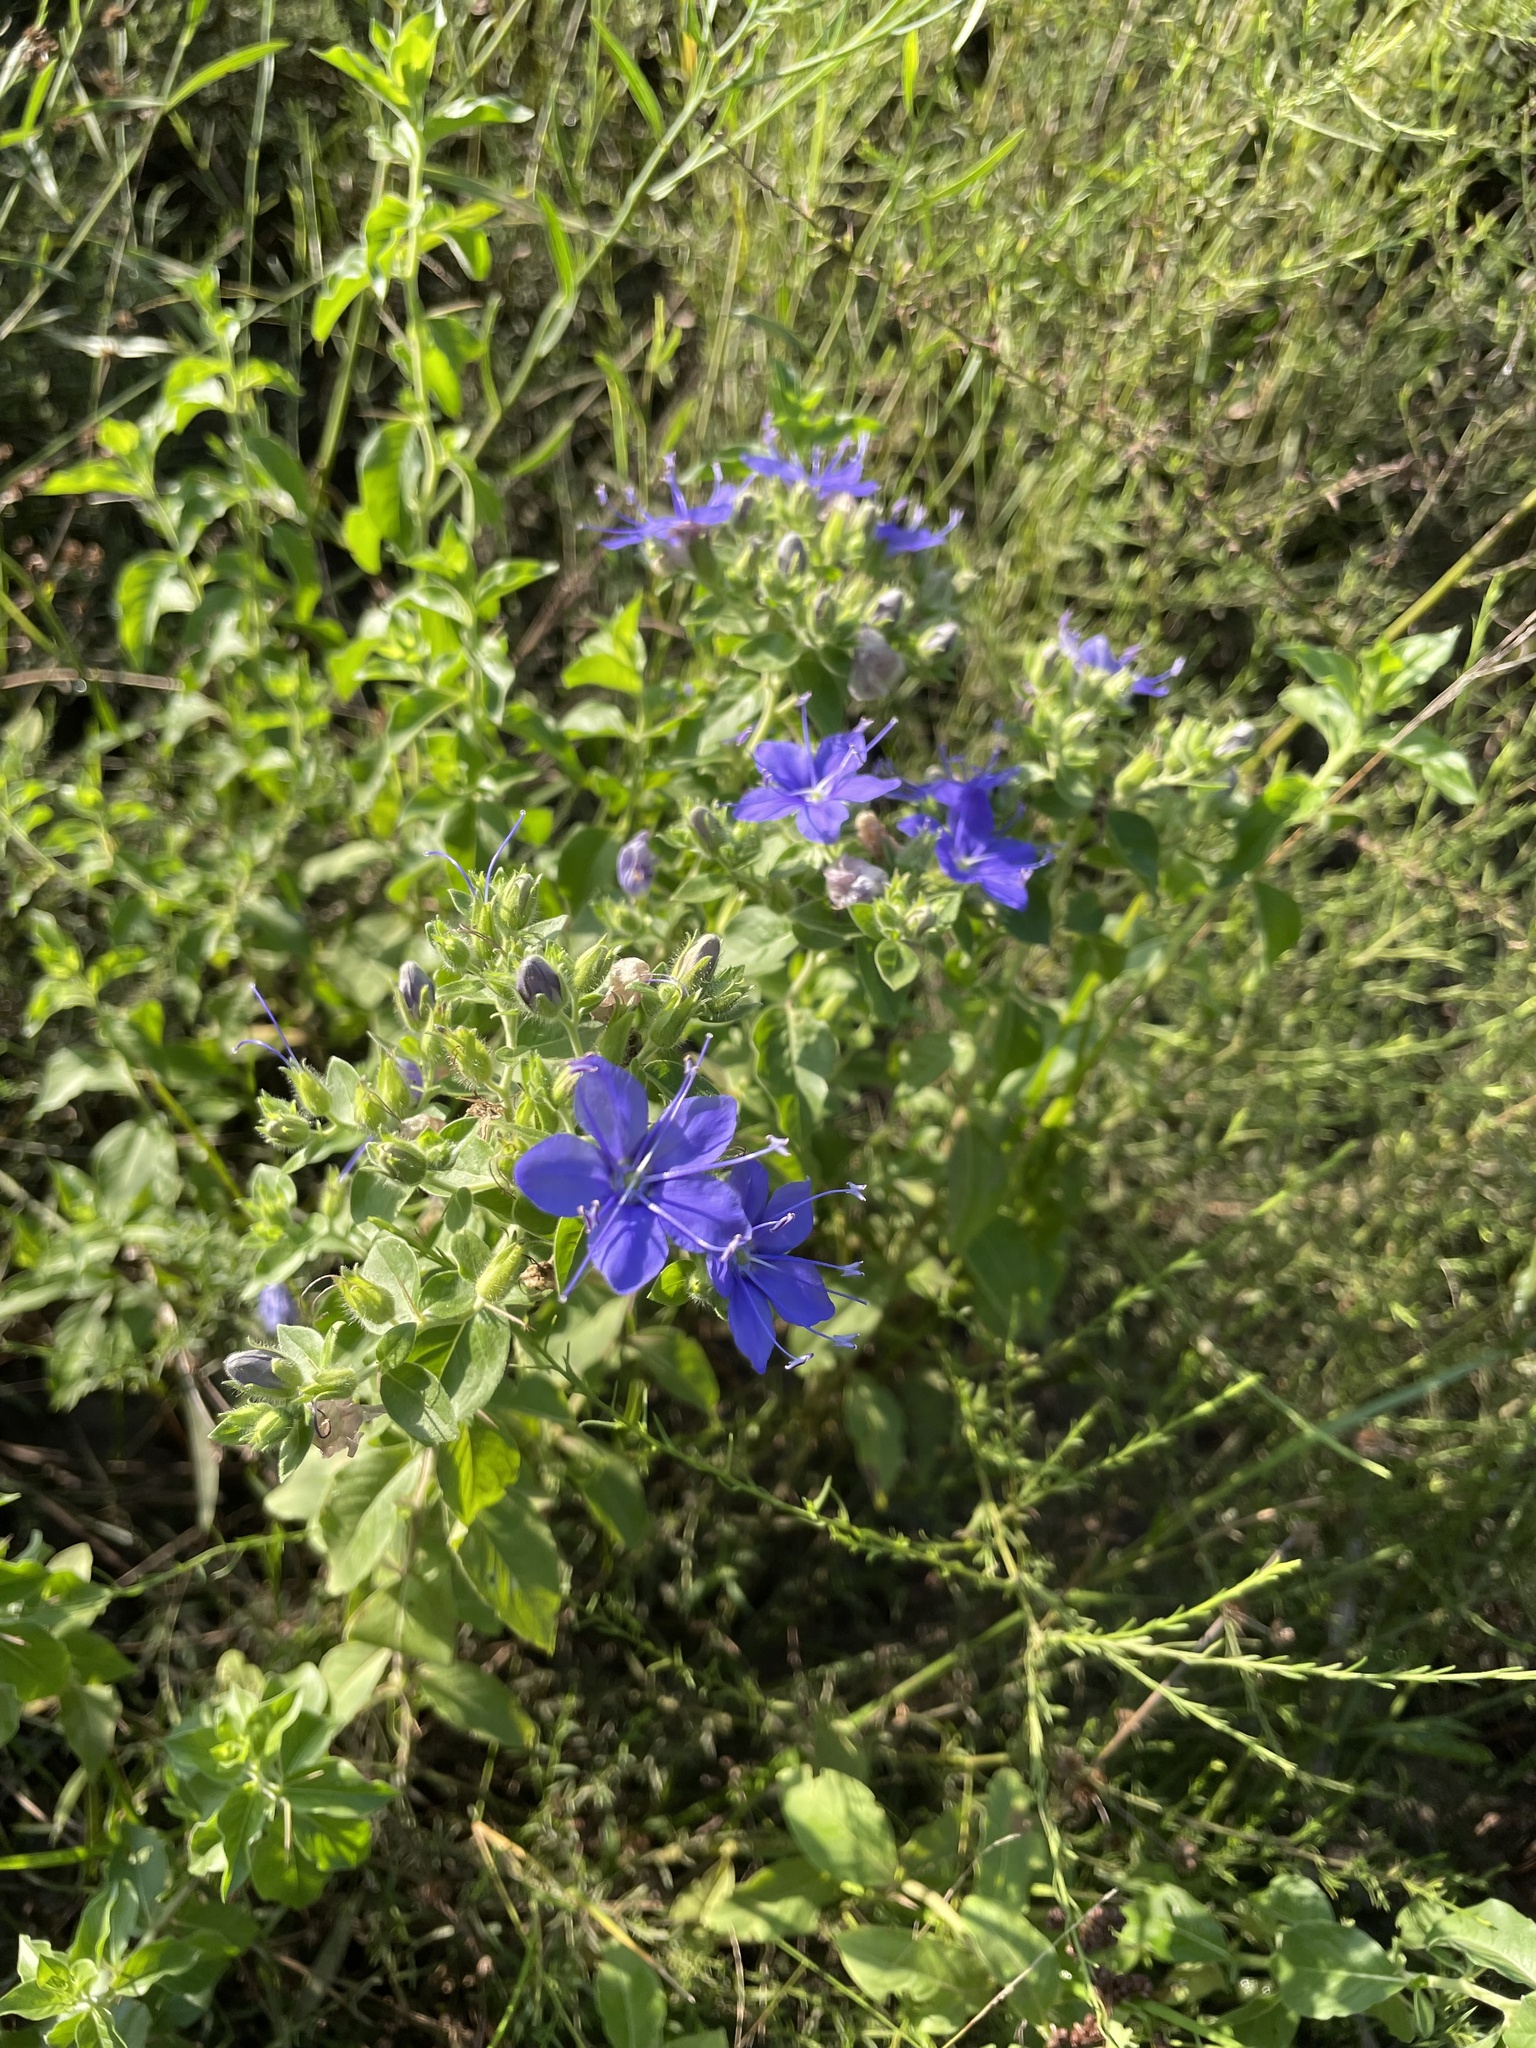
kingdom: Plantae
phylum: Tracheophyta
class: Magnoliopsida
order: Solanales
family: Hydroleaceae
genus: Hydrolea
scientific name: Hydrolea ovata
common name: Ovate false fiddleleaf
